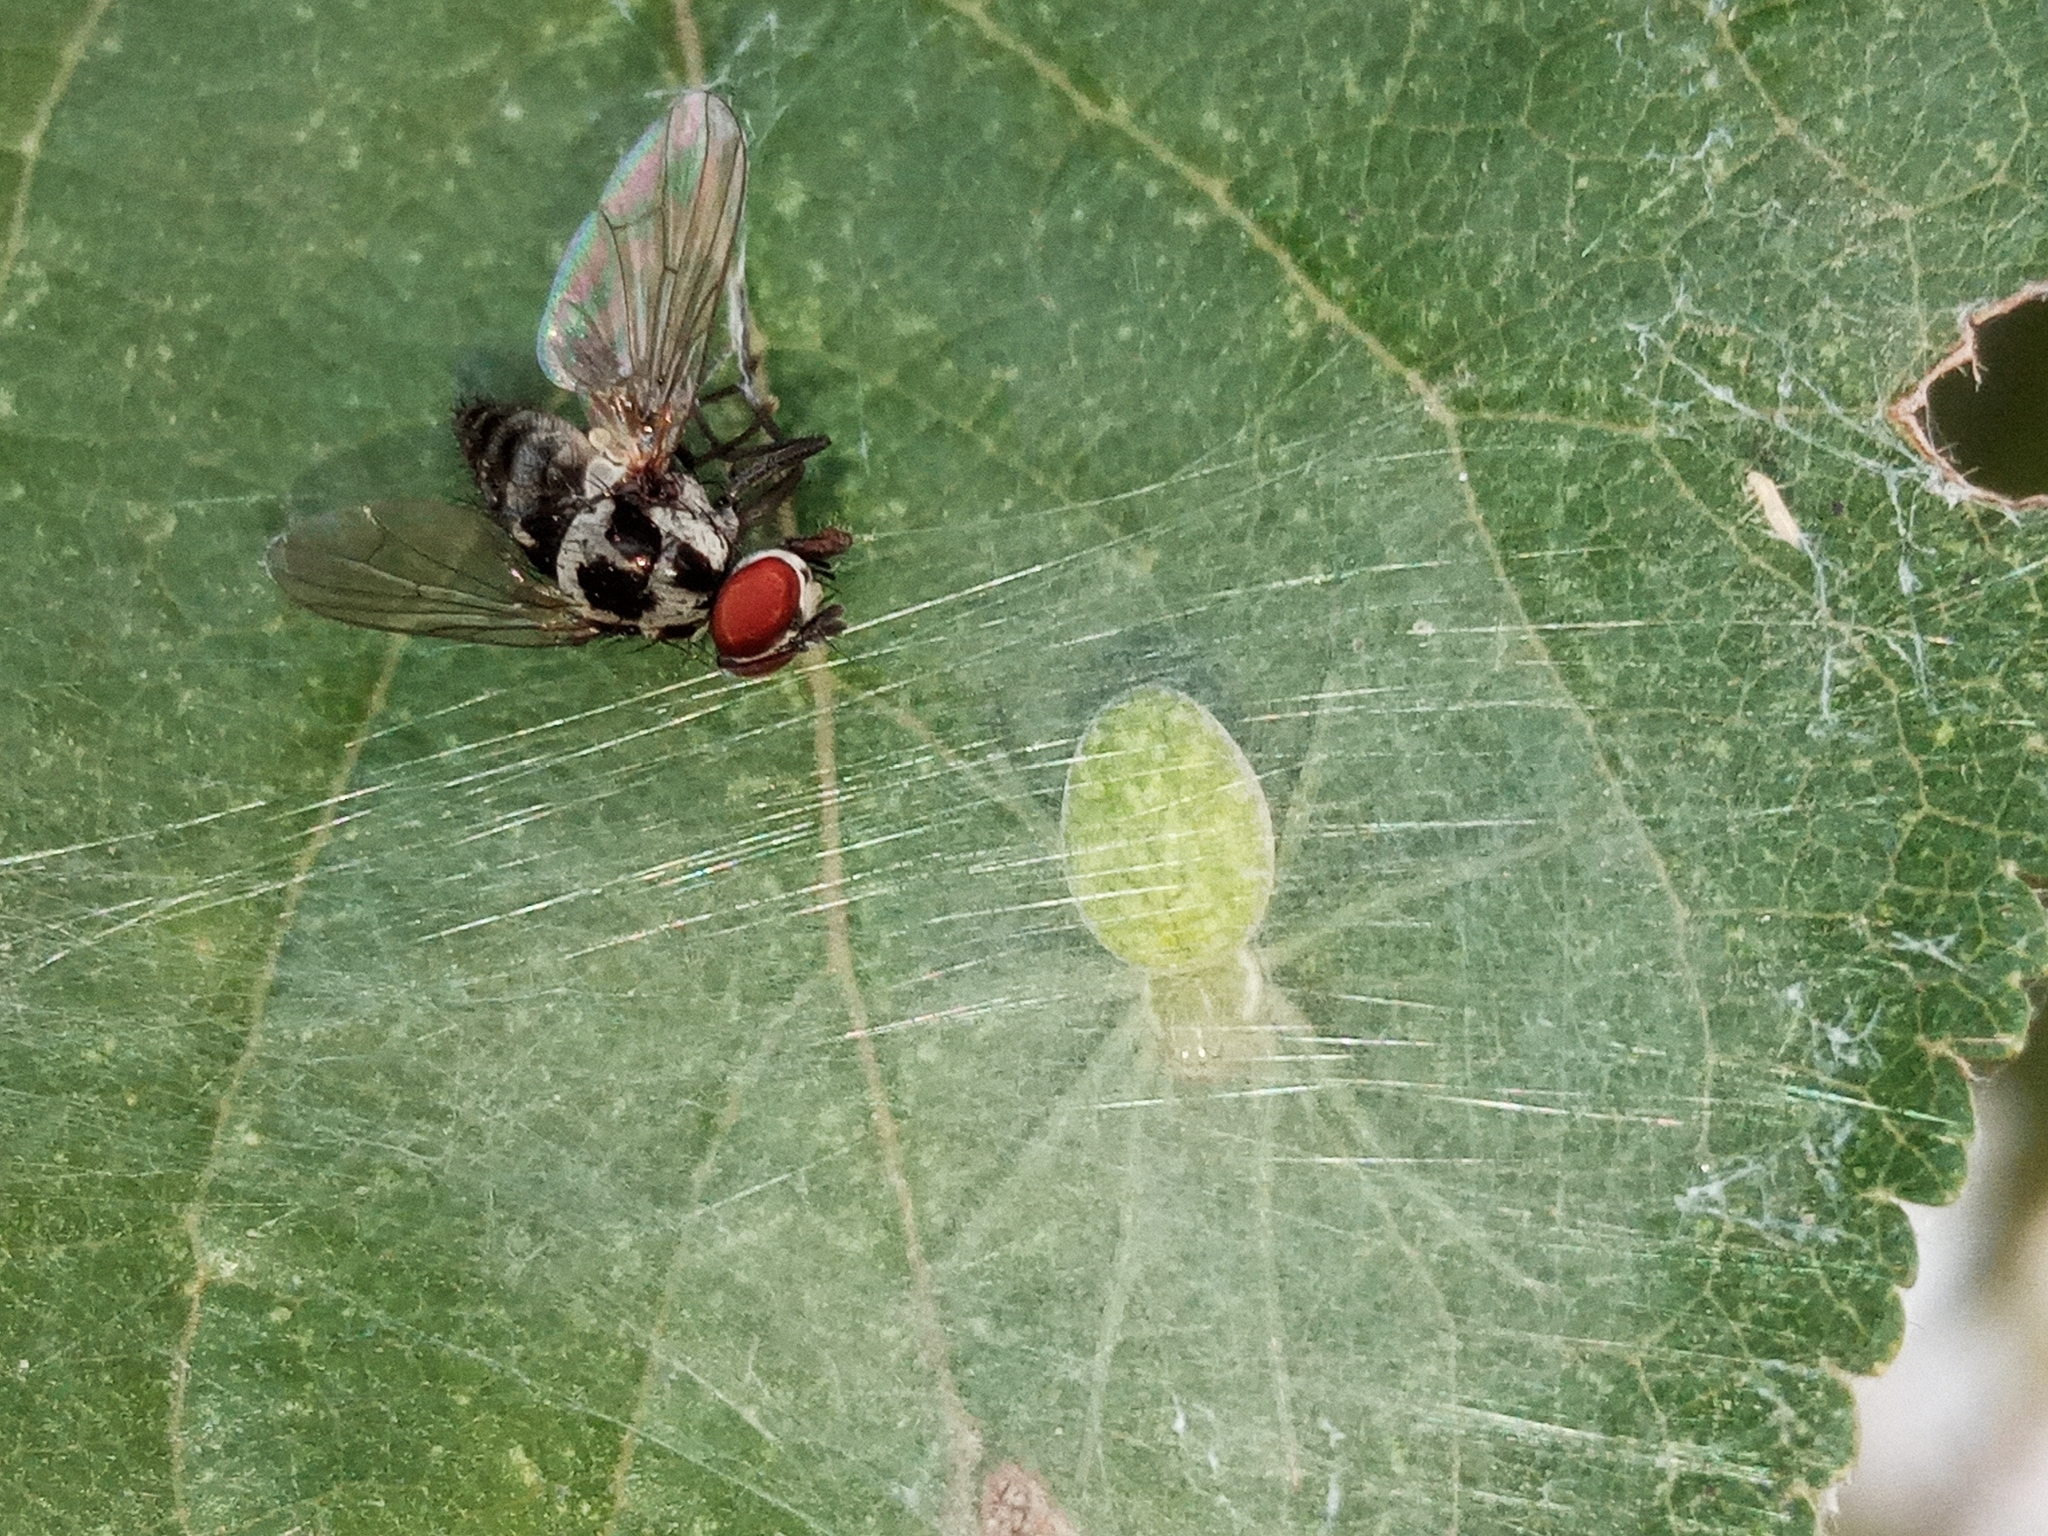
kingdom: Animalia
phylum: Arthropoda
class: Arachnida
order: Araneae
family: Dictynidae
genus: Nigma
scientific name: Nigma walckenaeri
